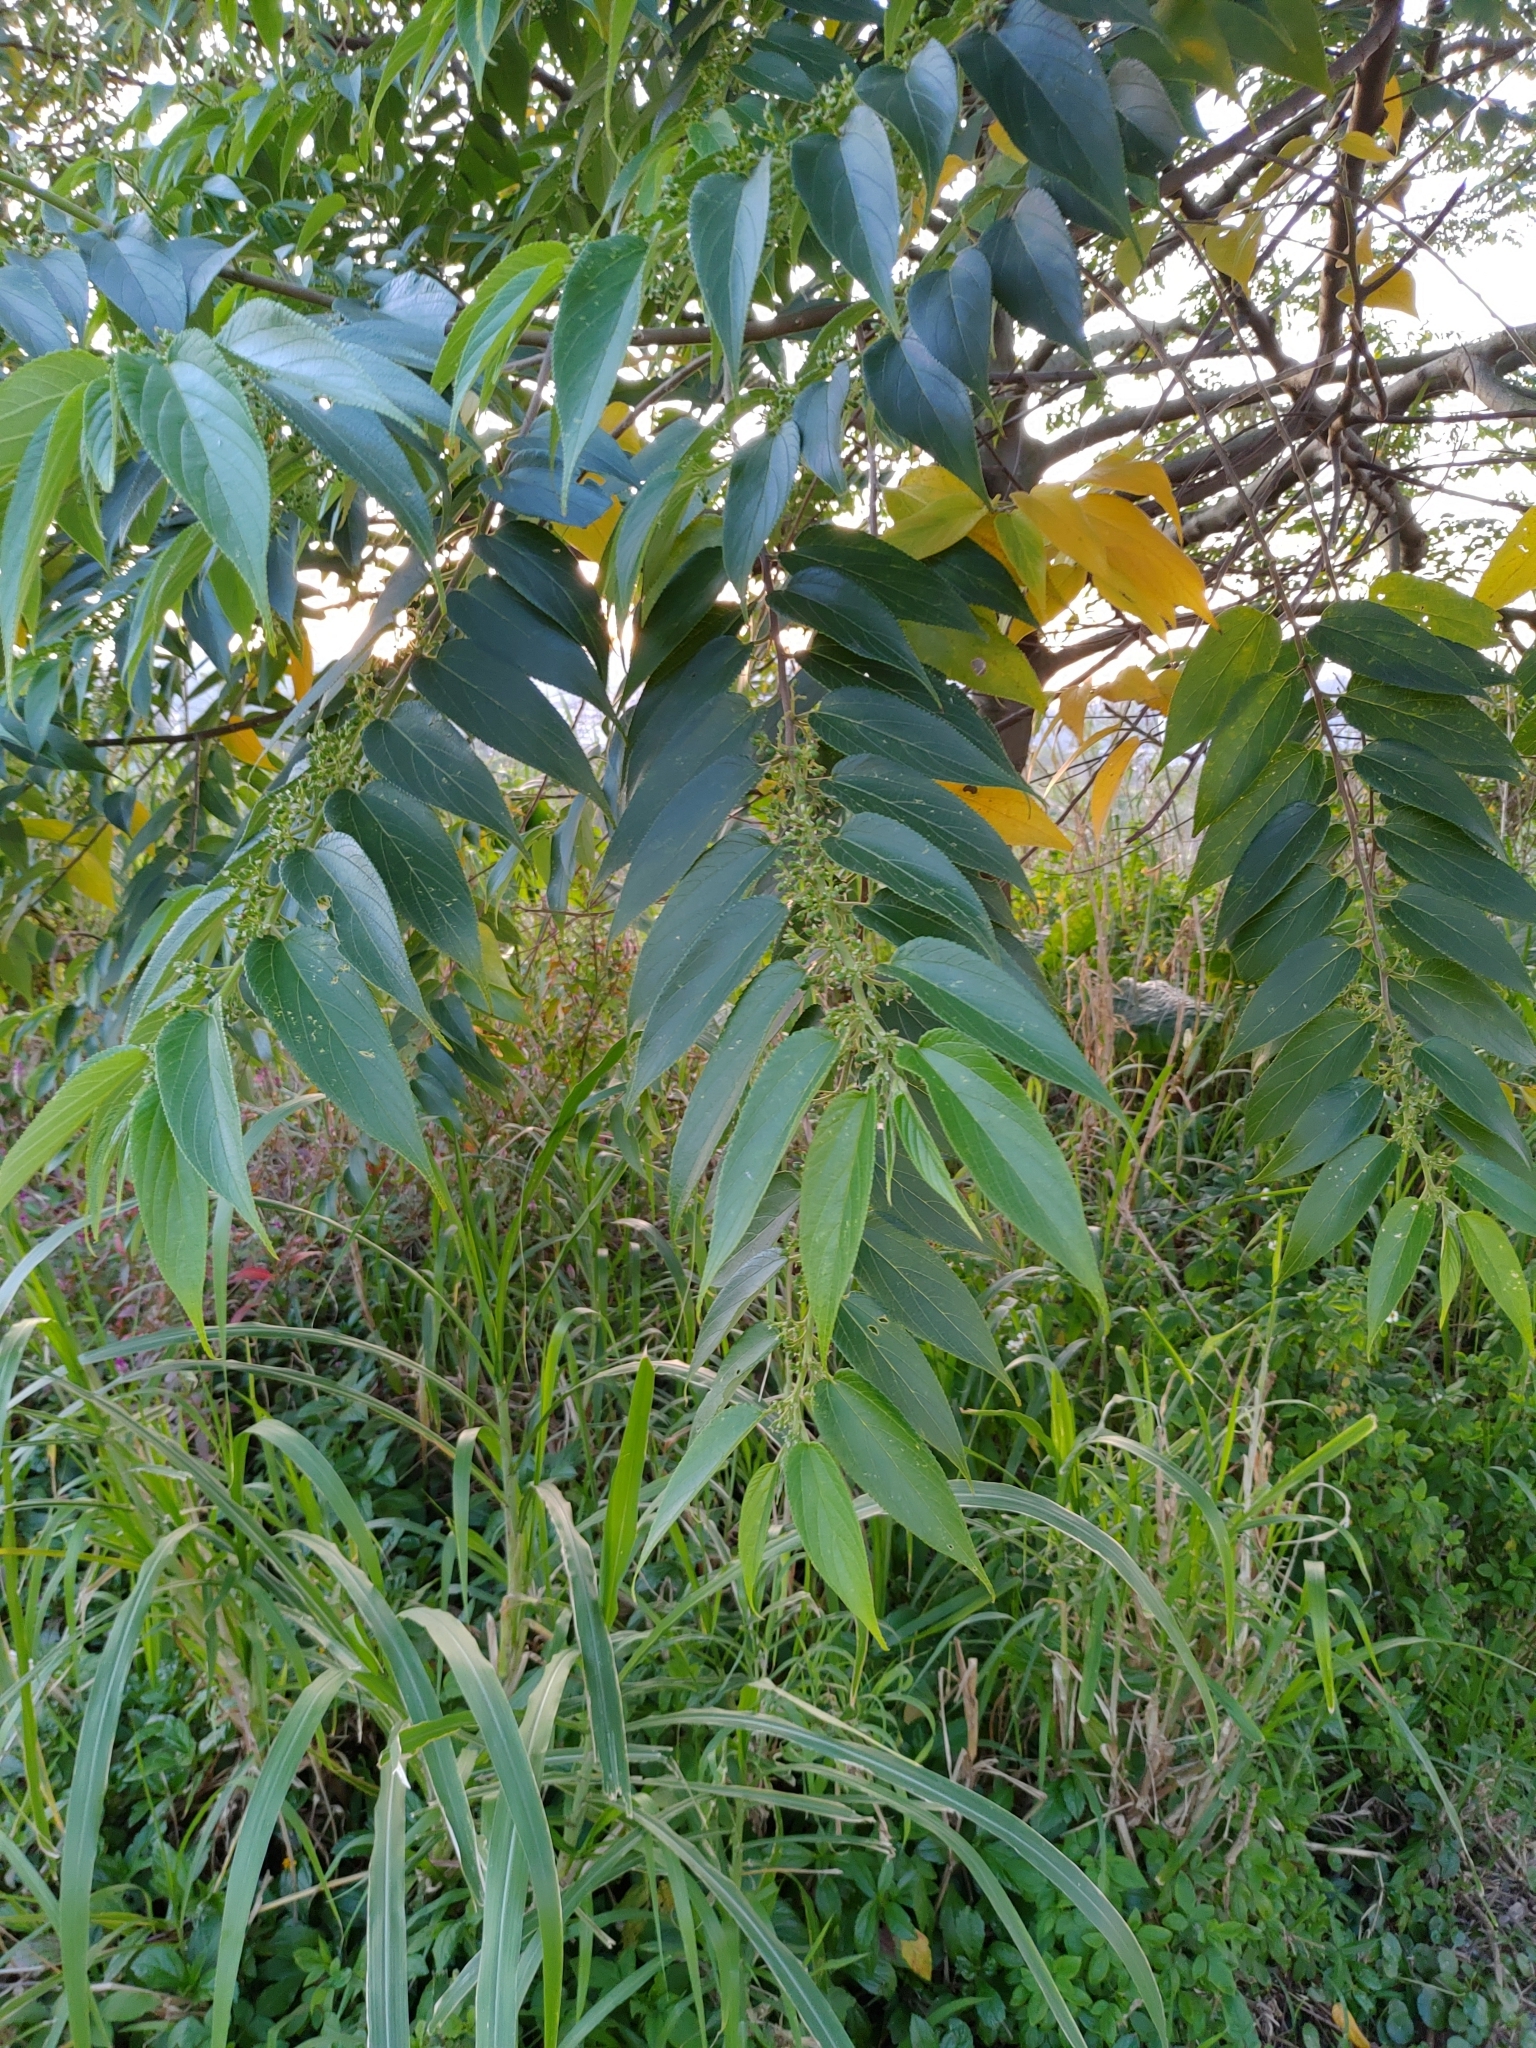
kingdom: Plantae
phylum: Tracheophyta
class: Magnoliopsida
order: Rosales
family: Cannabaceae
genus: Trema
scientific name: Trema orientale
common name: Indian charcoal tree
